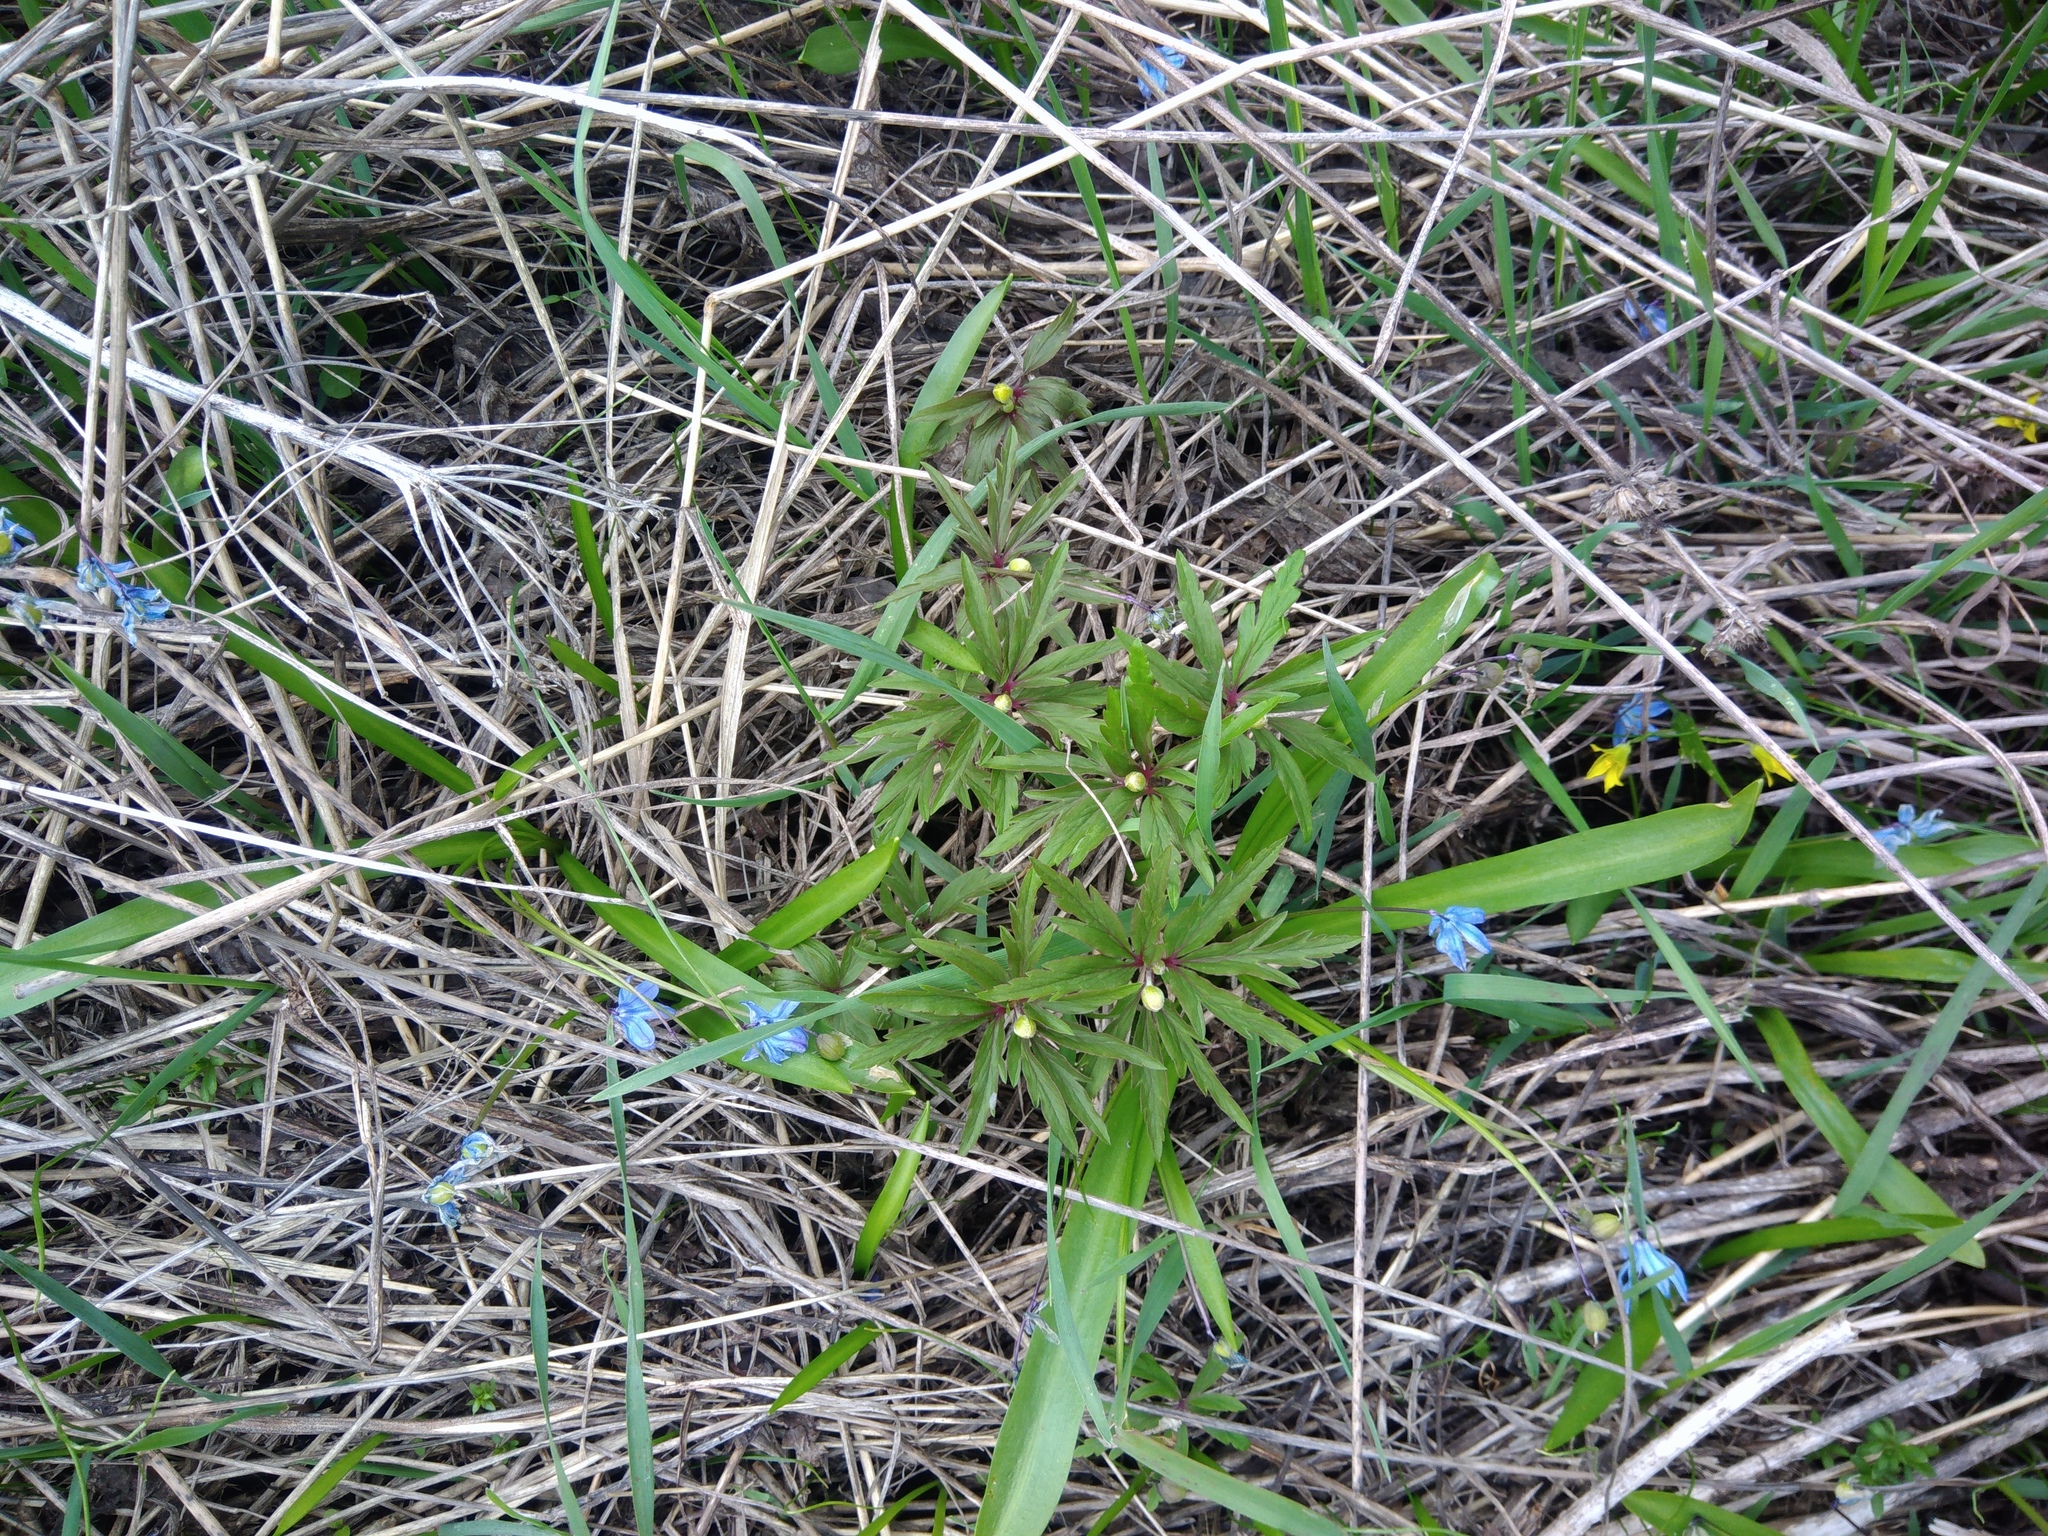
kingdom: Plantae
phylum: Tracheophyta
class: Magnoliopsida
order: Ranunculales
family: Ranunculaceae
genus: Anemone
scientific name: Anemone ranunculoides
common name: Yellow anemone
